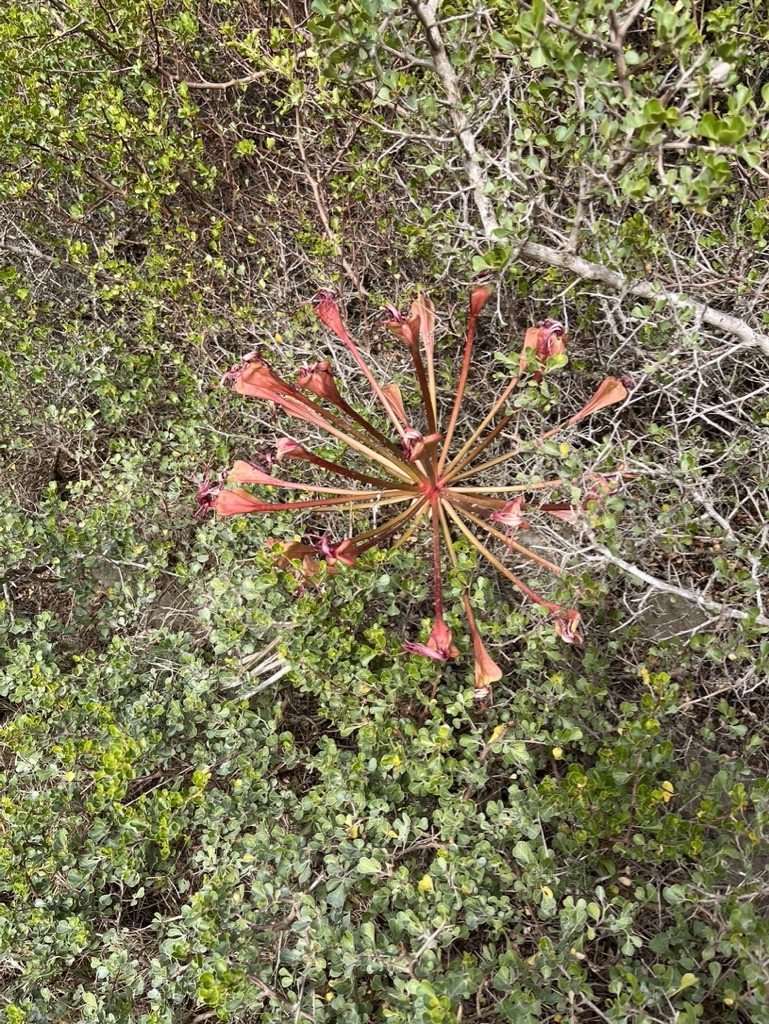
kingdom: Plantae
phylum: Tracheophyta
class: Liliopsida
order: Asparagales
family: Amaryllidaceae
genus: Brunsvigia
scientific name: Brunsvigia orientalis
